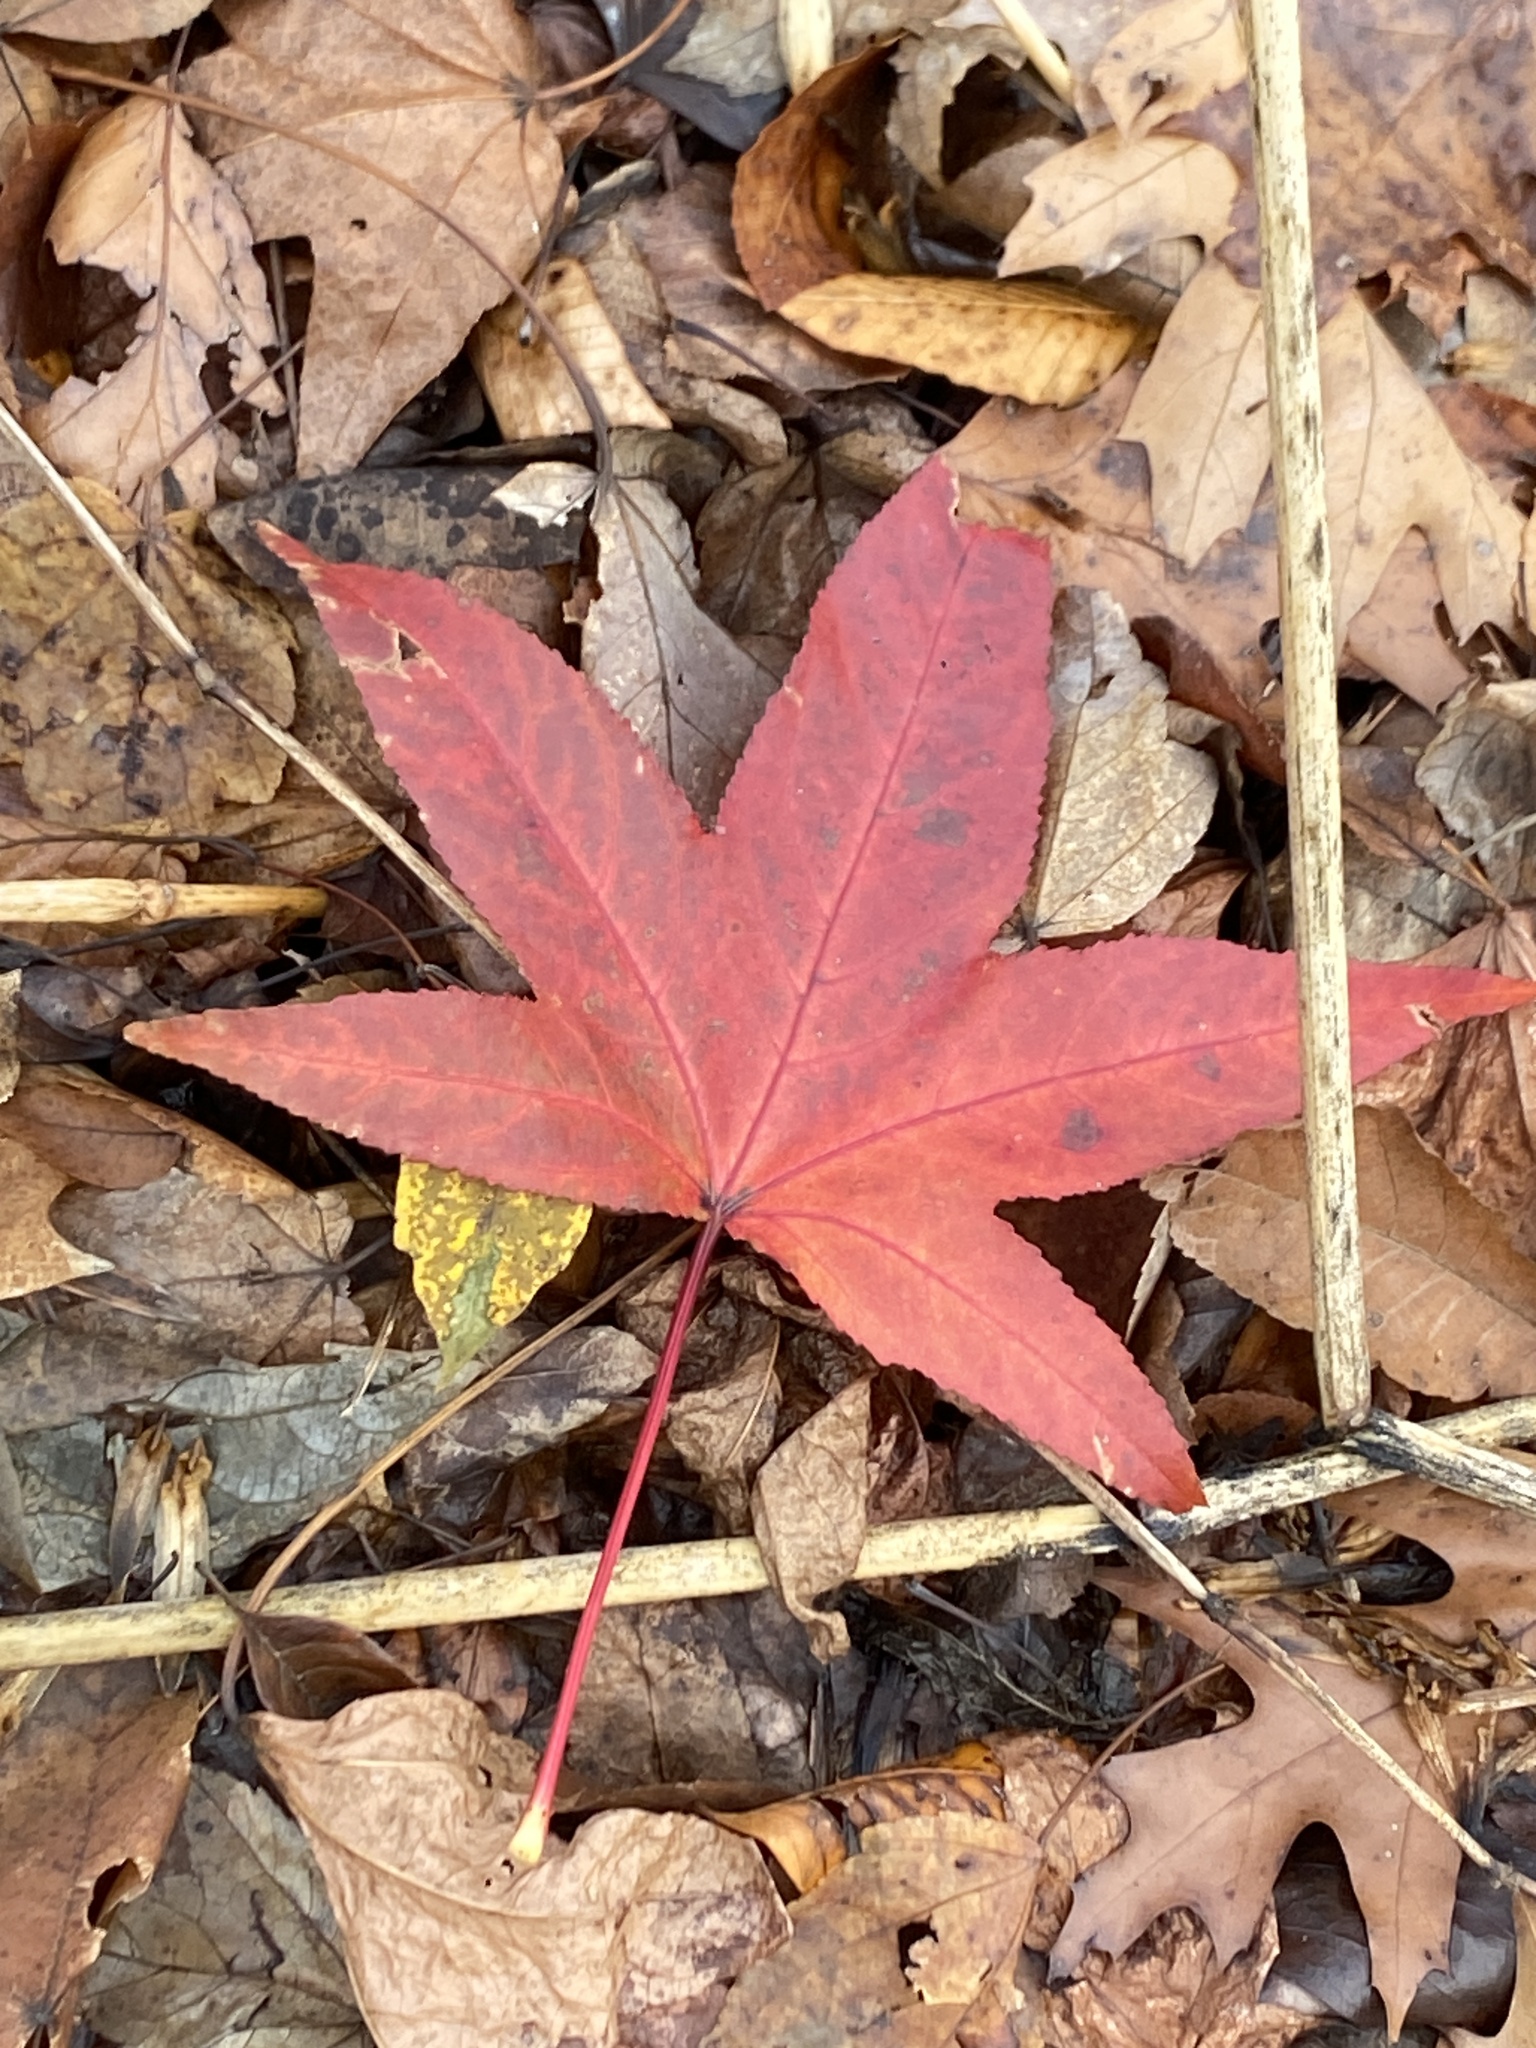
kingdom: Plantae
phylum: Tracheophyta
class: Magnoliopsida
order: Saxifragales
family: Altingiaceae
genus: Liquidambar
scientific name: Liquidambar styraciflua
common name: Sweet gum
